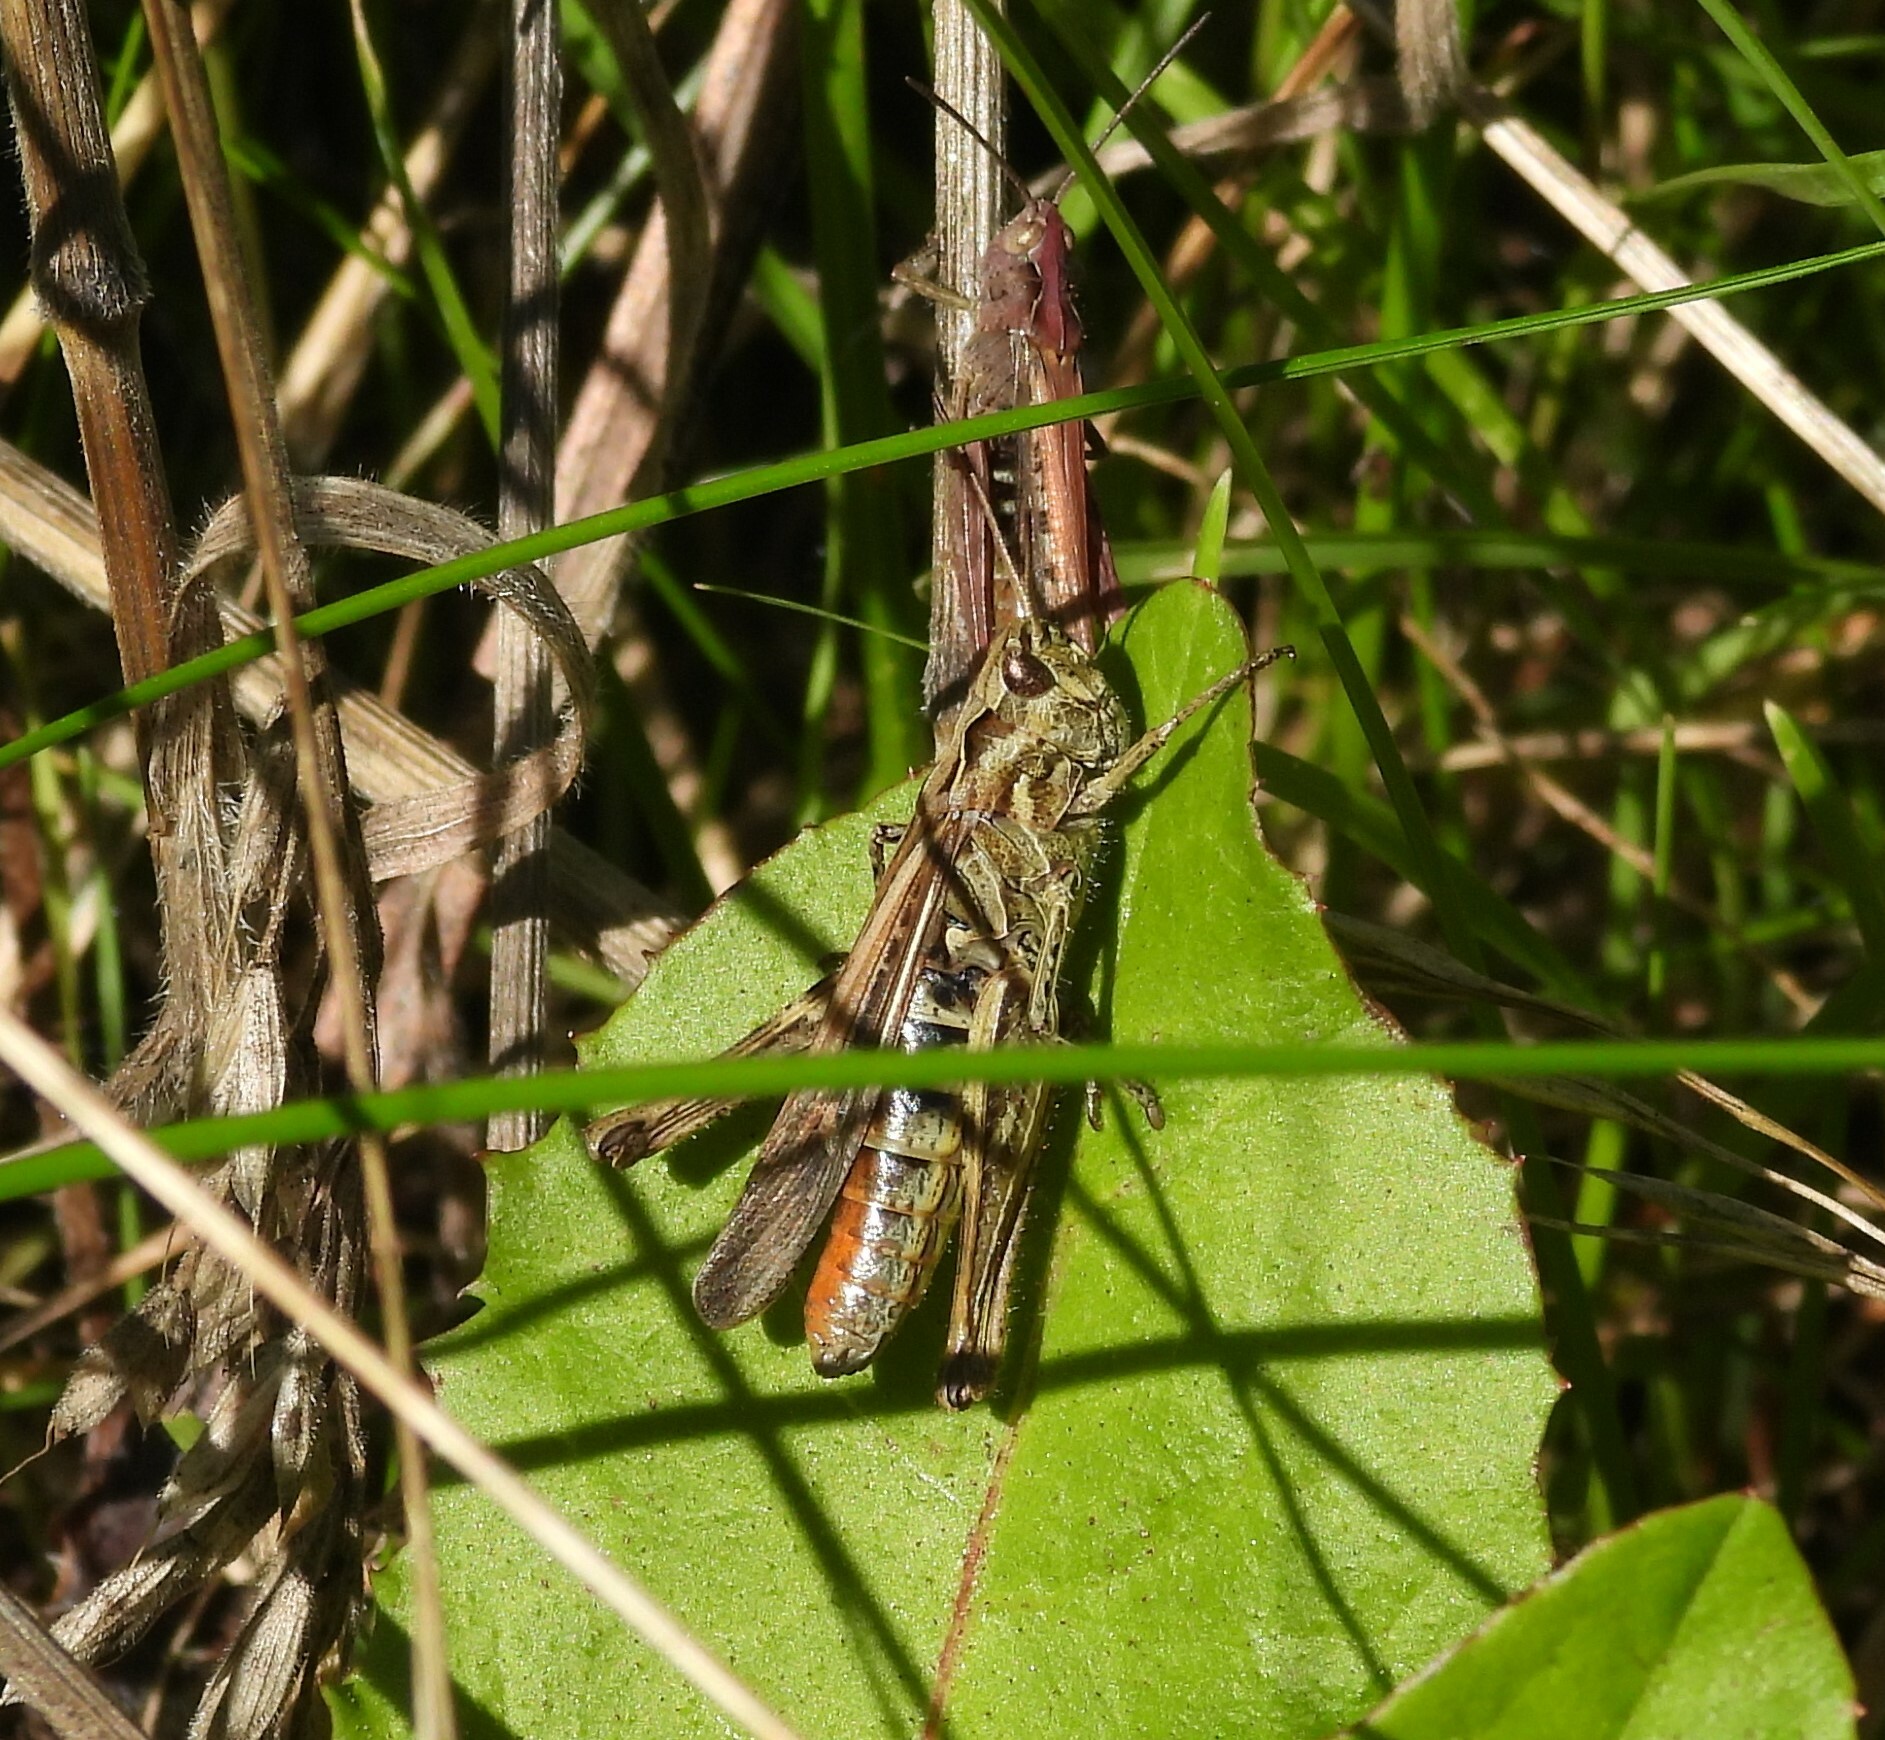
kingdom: Animalia
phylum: Arthropoda
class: Insecta
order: Orthoptera
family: Acrididae
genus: Chorthippus
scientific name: Chorthippus brunneus
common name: Field grasshopper
